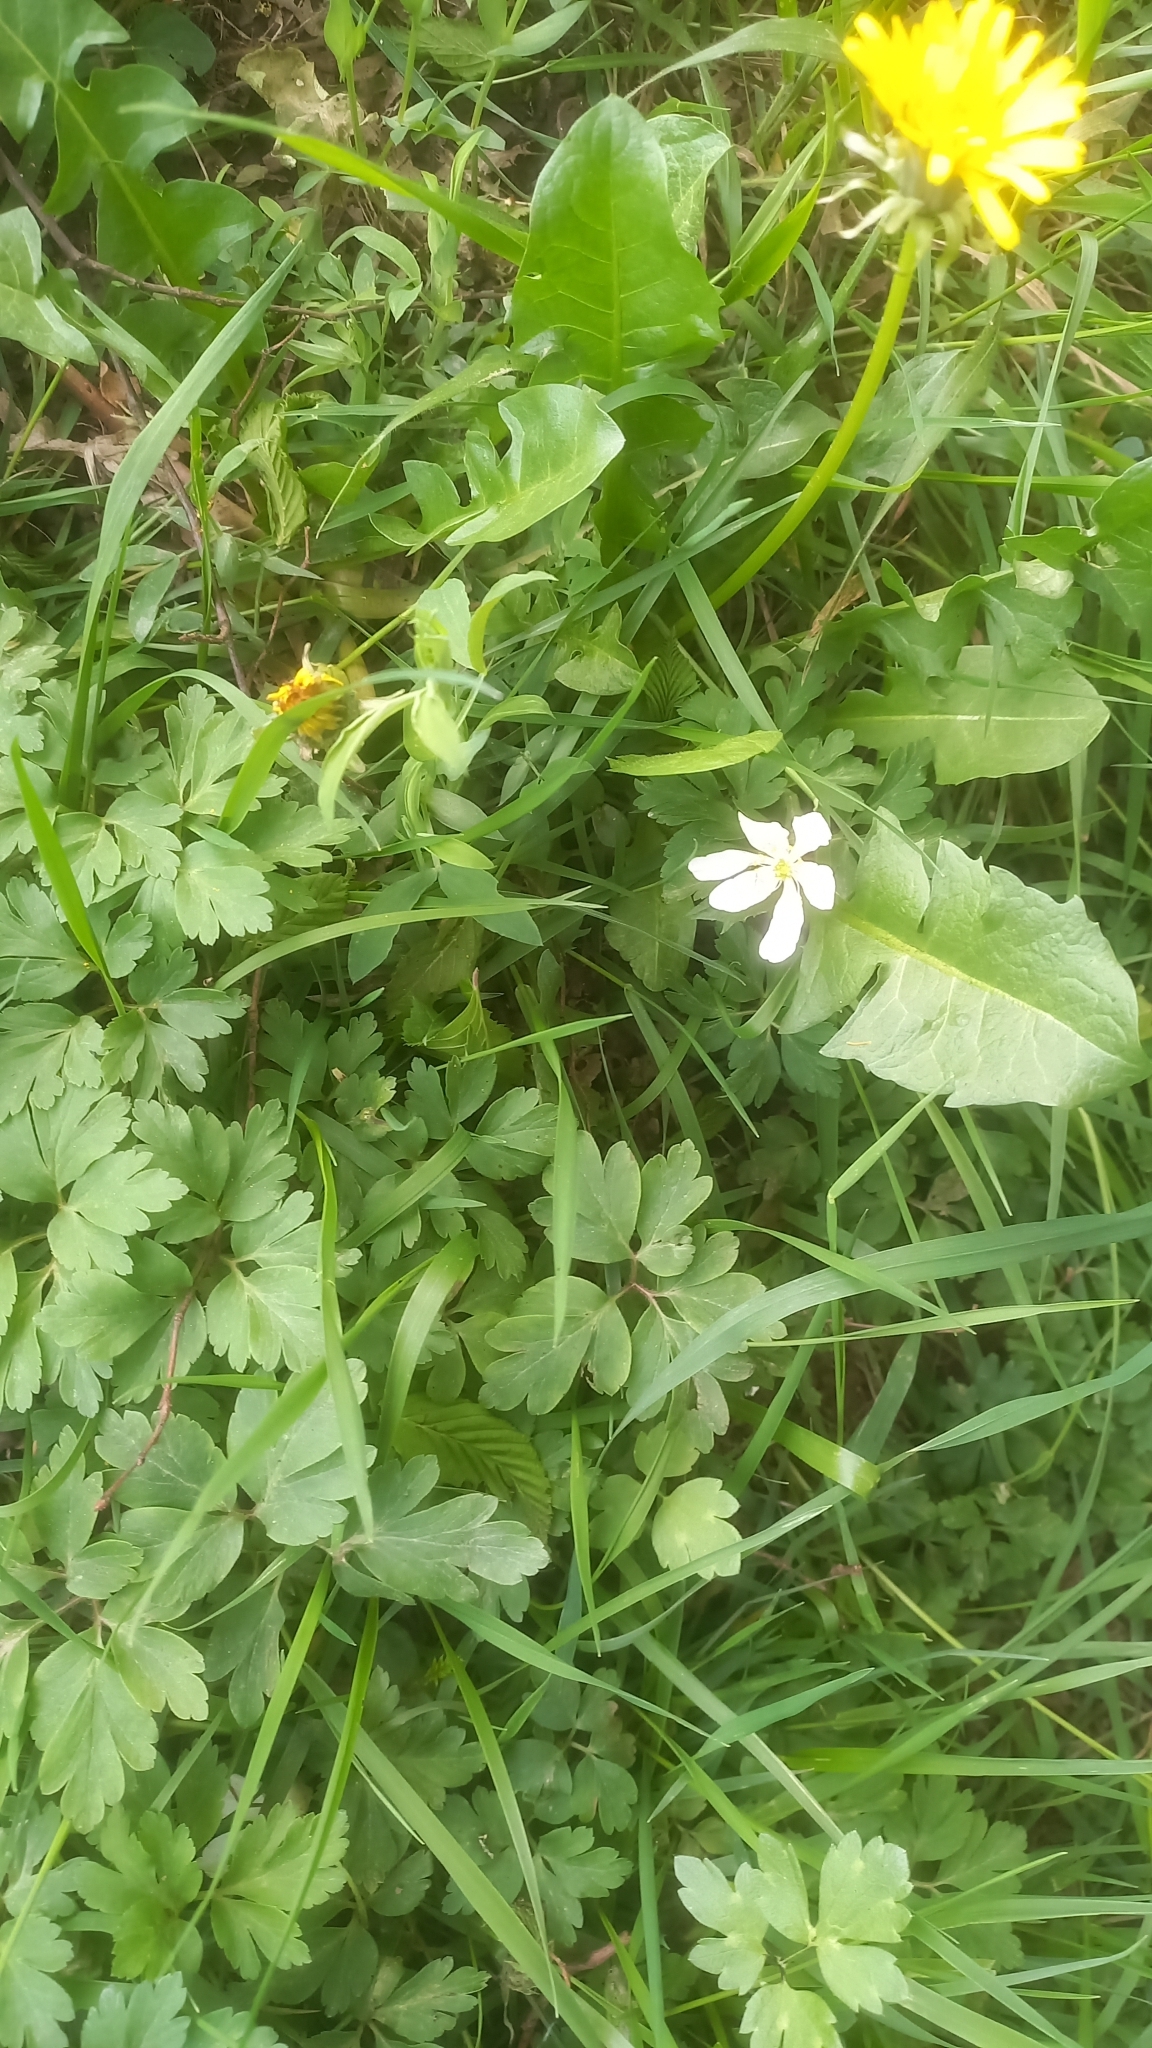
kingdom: Plantae
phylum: Tracheophyta
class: Magnoliopsida
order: Ranunculales
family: Ranunculaceae
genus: Anemone
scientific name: Anemone nemorosa
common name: Wood anemone
